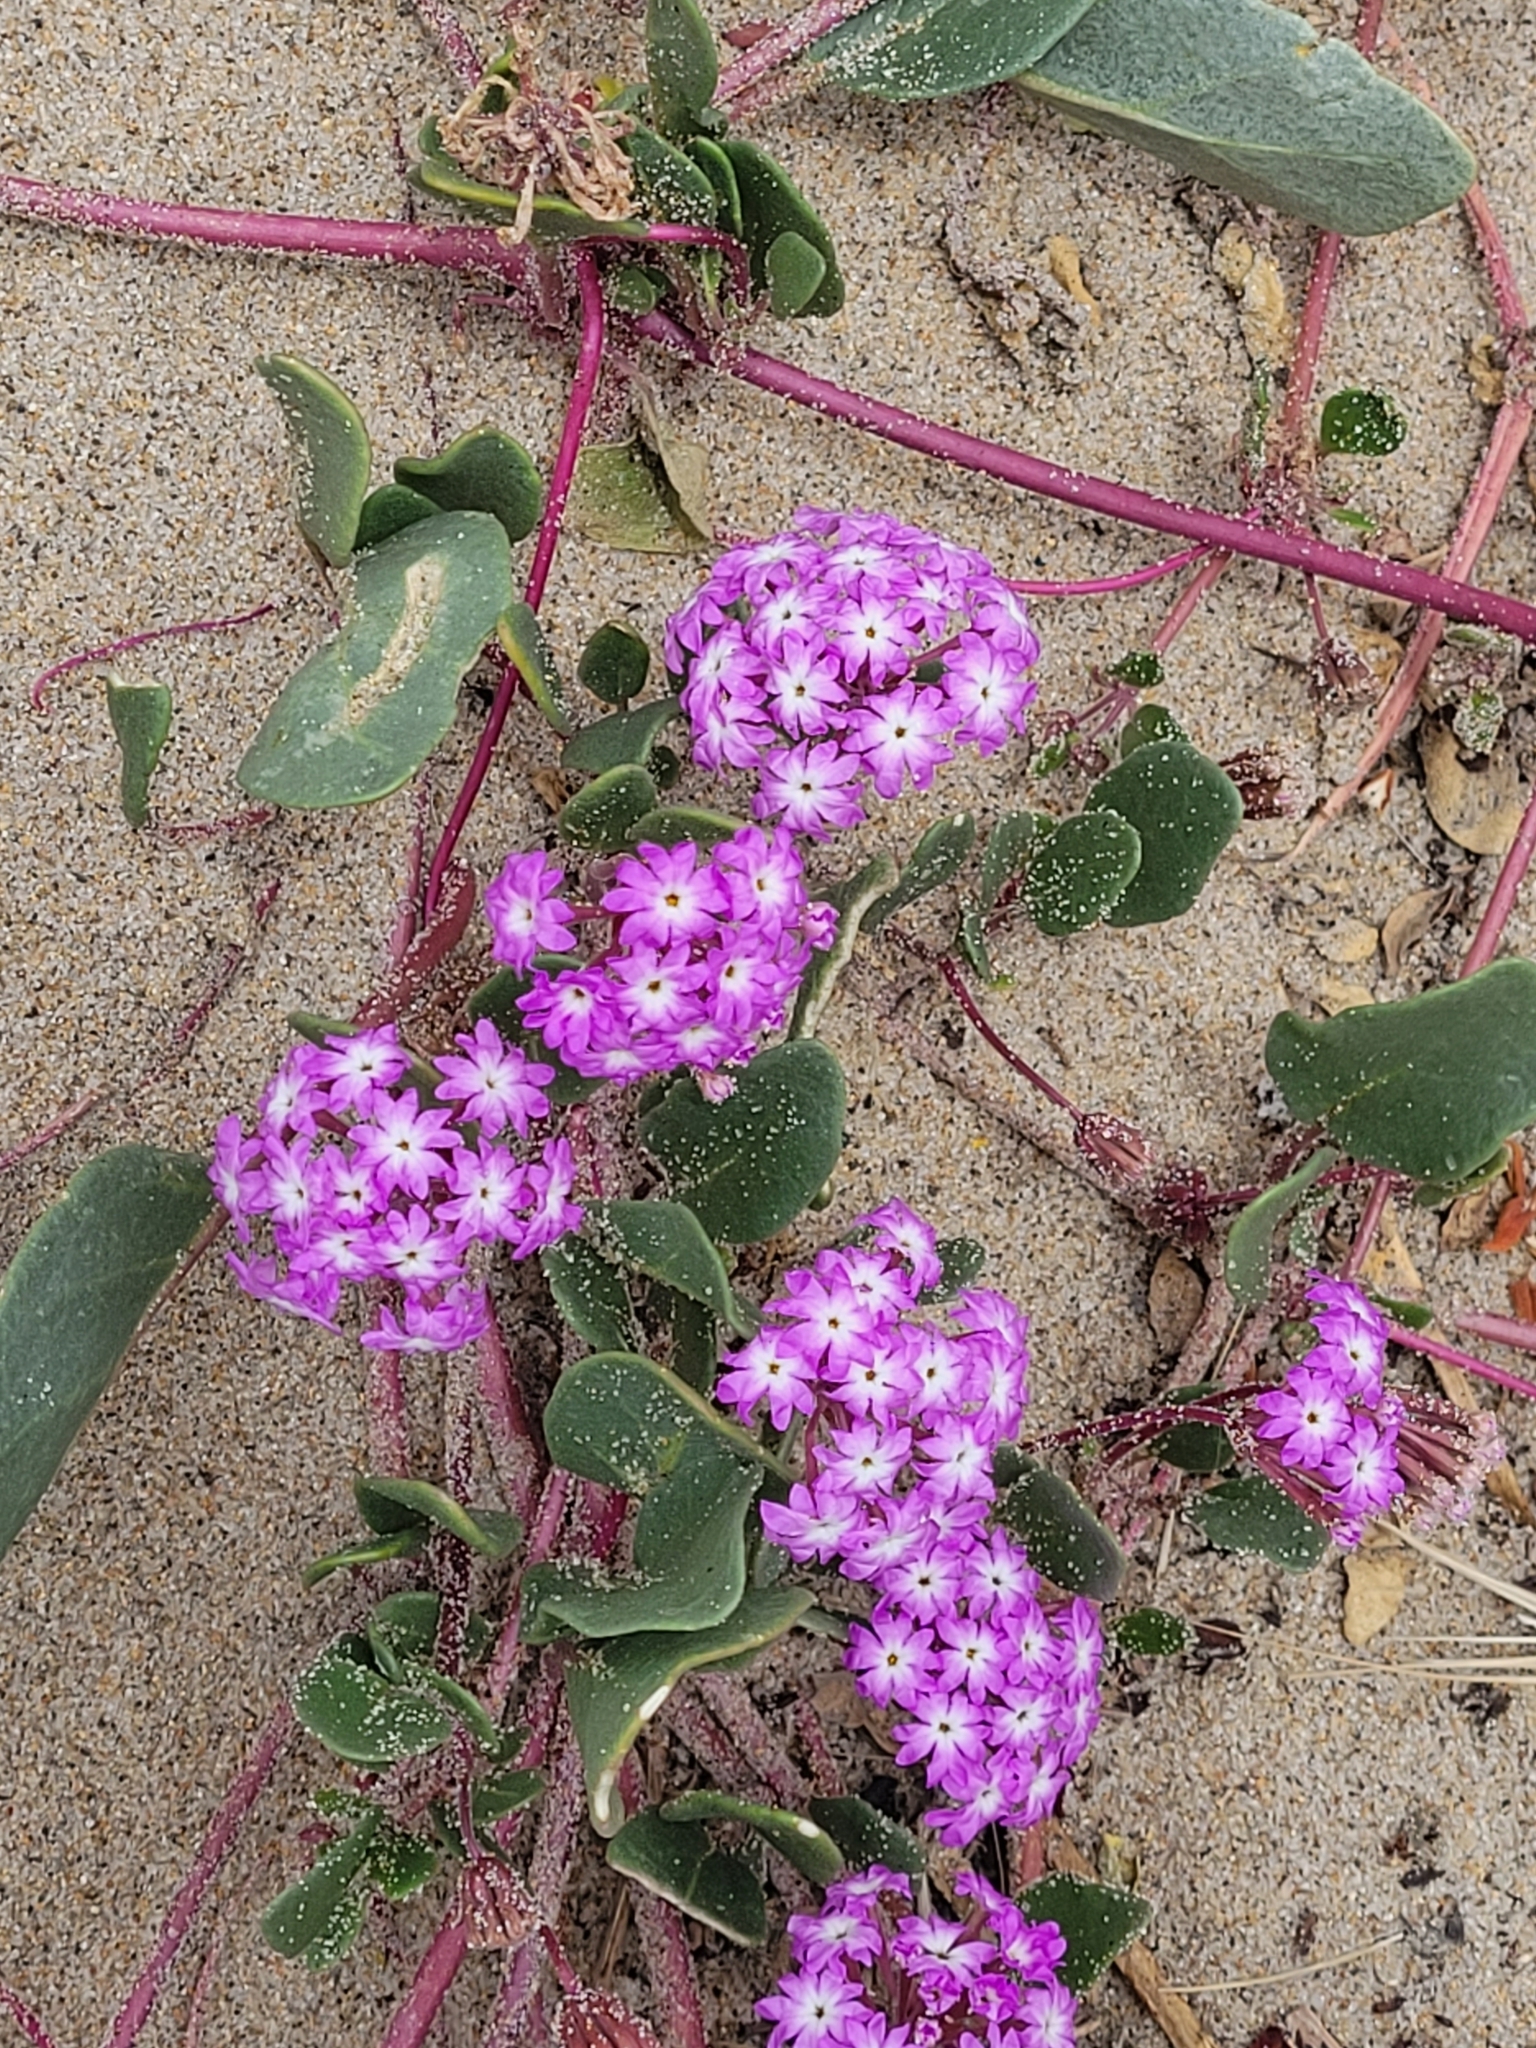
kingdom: Plantae
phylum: Tracheophyta
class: Magnoliopsida
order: Caryophyllales
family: Nyctaginaceae
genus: Abronia
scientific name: Abronia umbellata
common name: Sand-verbena
